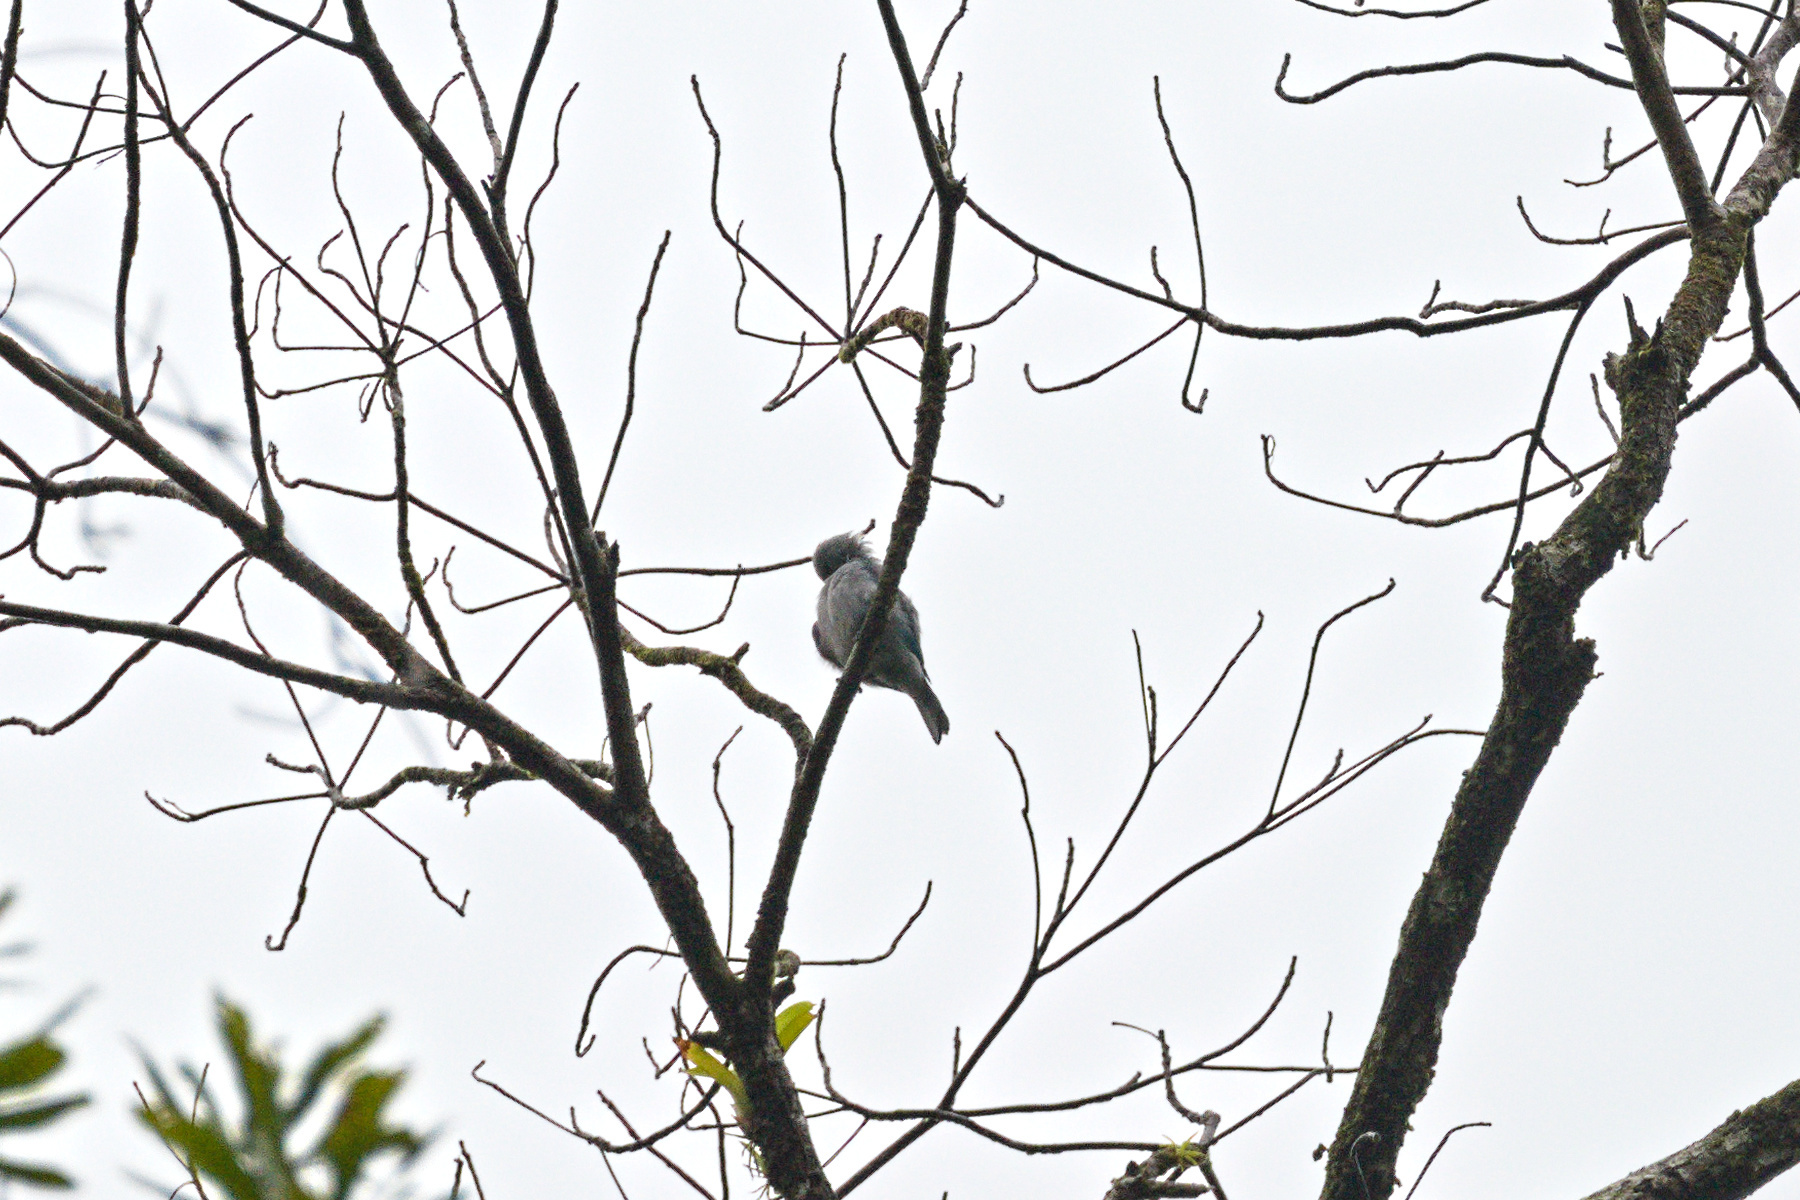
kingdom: Animalia
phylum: Chordata
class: Aves
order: Passeriformes
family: Thraupidae
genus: Thraupis
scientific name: Thraupis episcopus
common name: Blue-grey tanager
